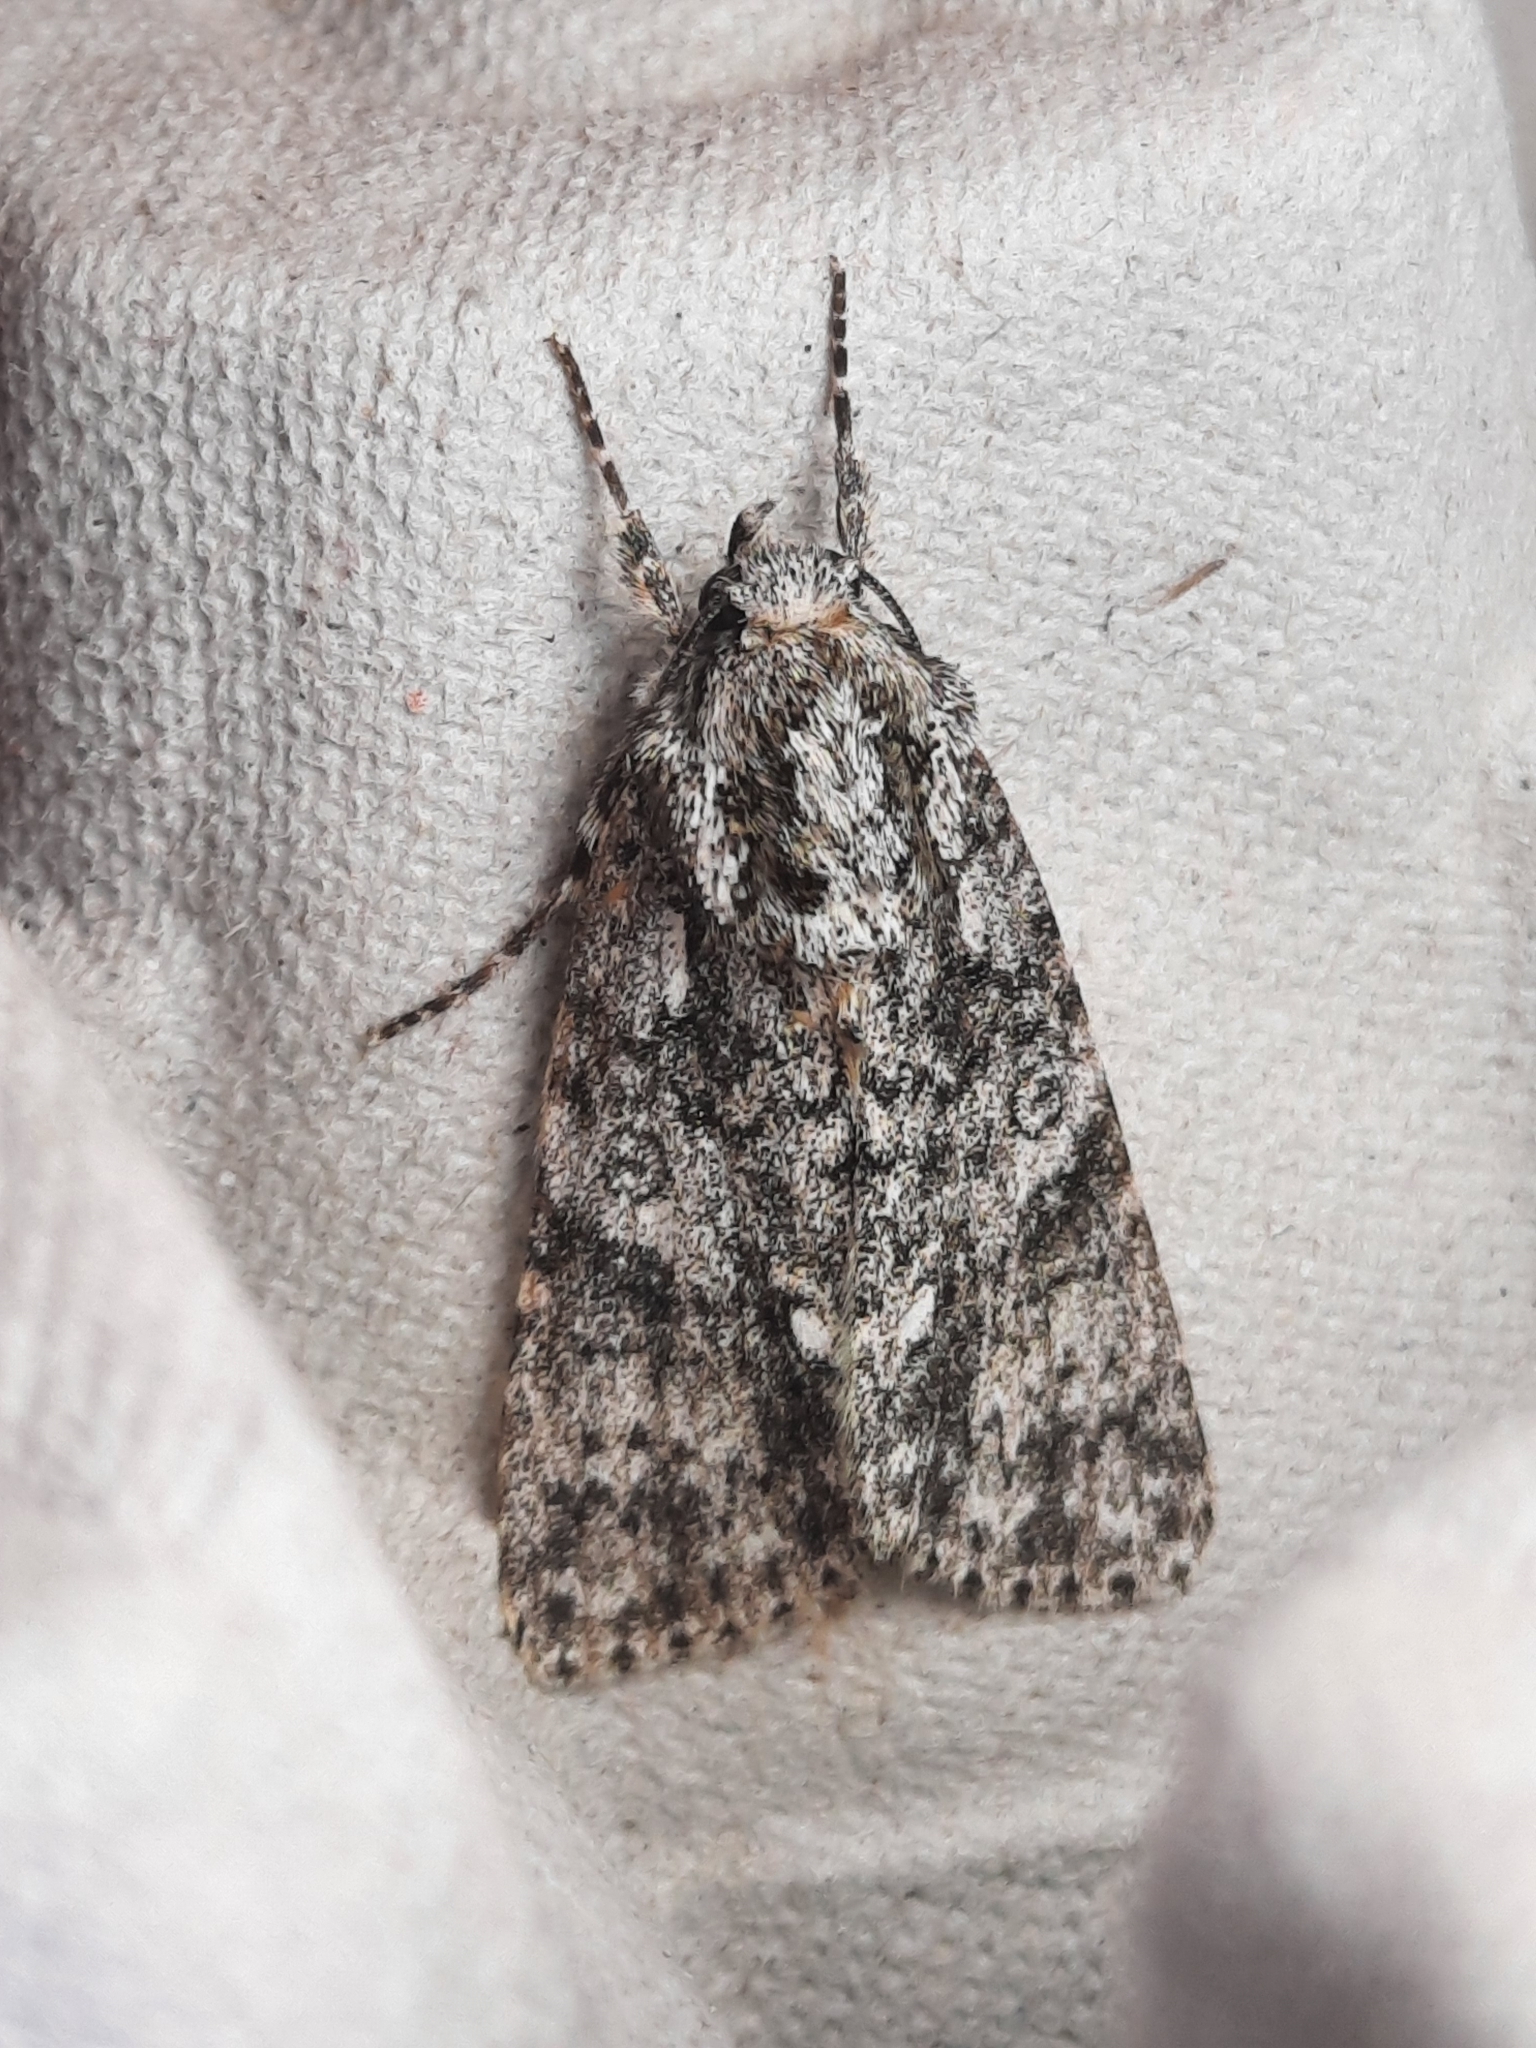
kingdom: Animalia
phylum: Arthropoda
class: Insecta
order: Lepidoptera
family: Noctuidae
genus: Acronicta
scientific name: Acronicta rumicis
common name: Knot grass
